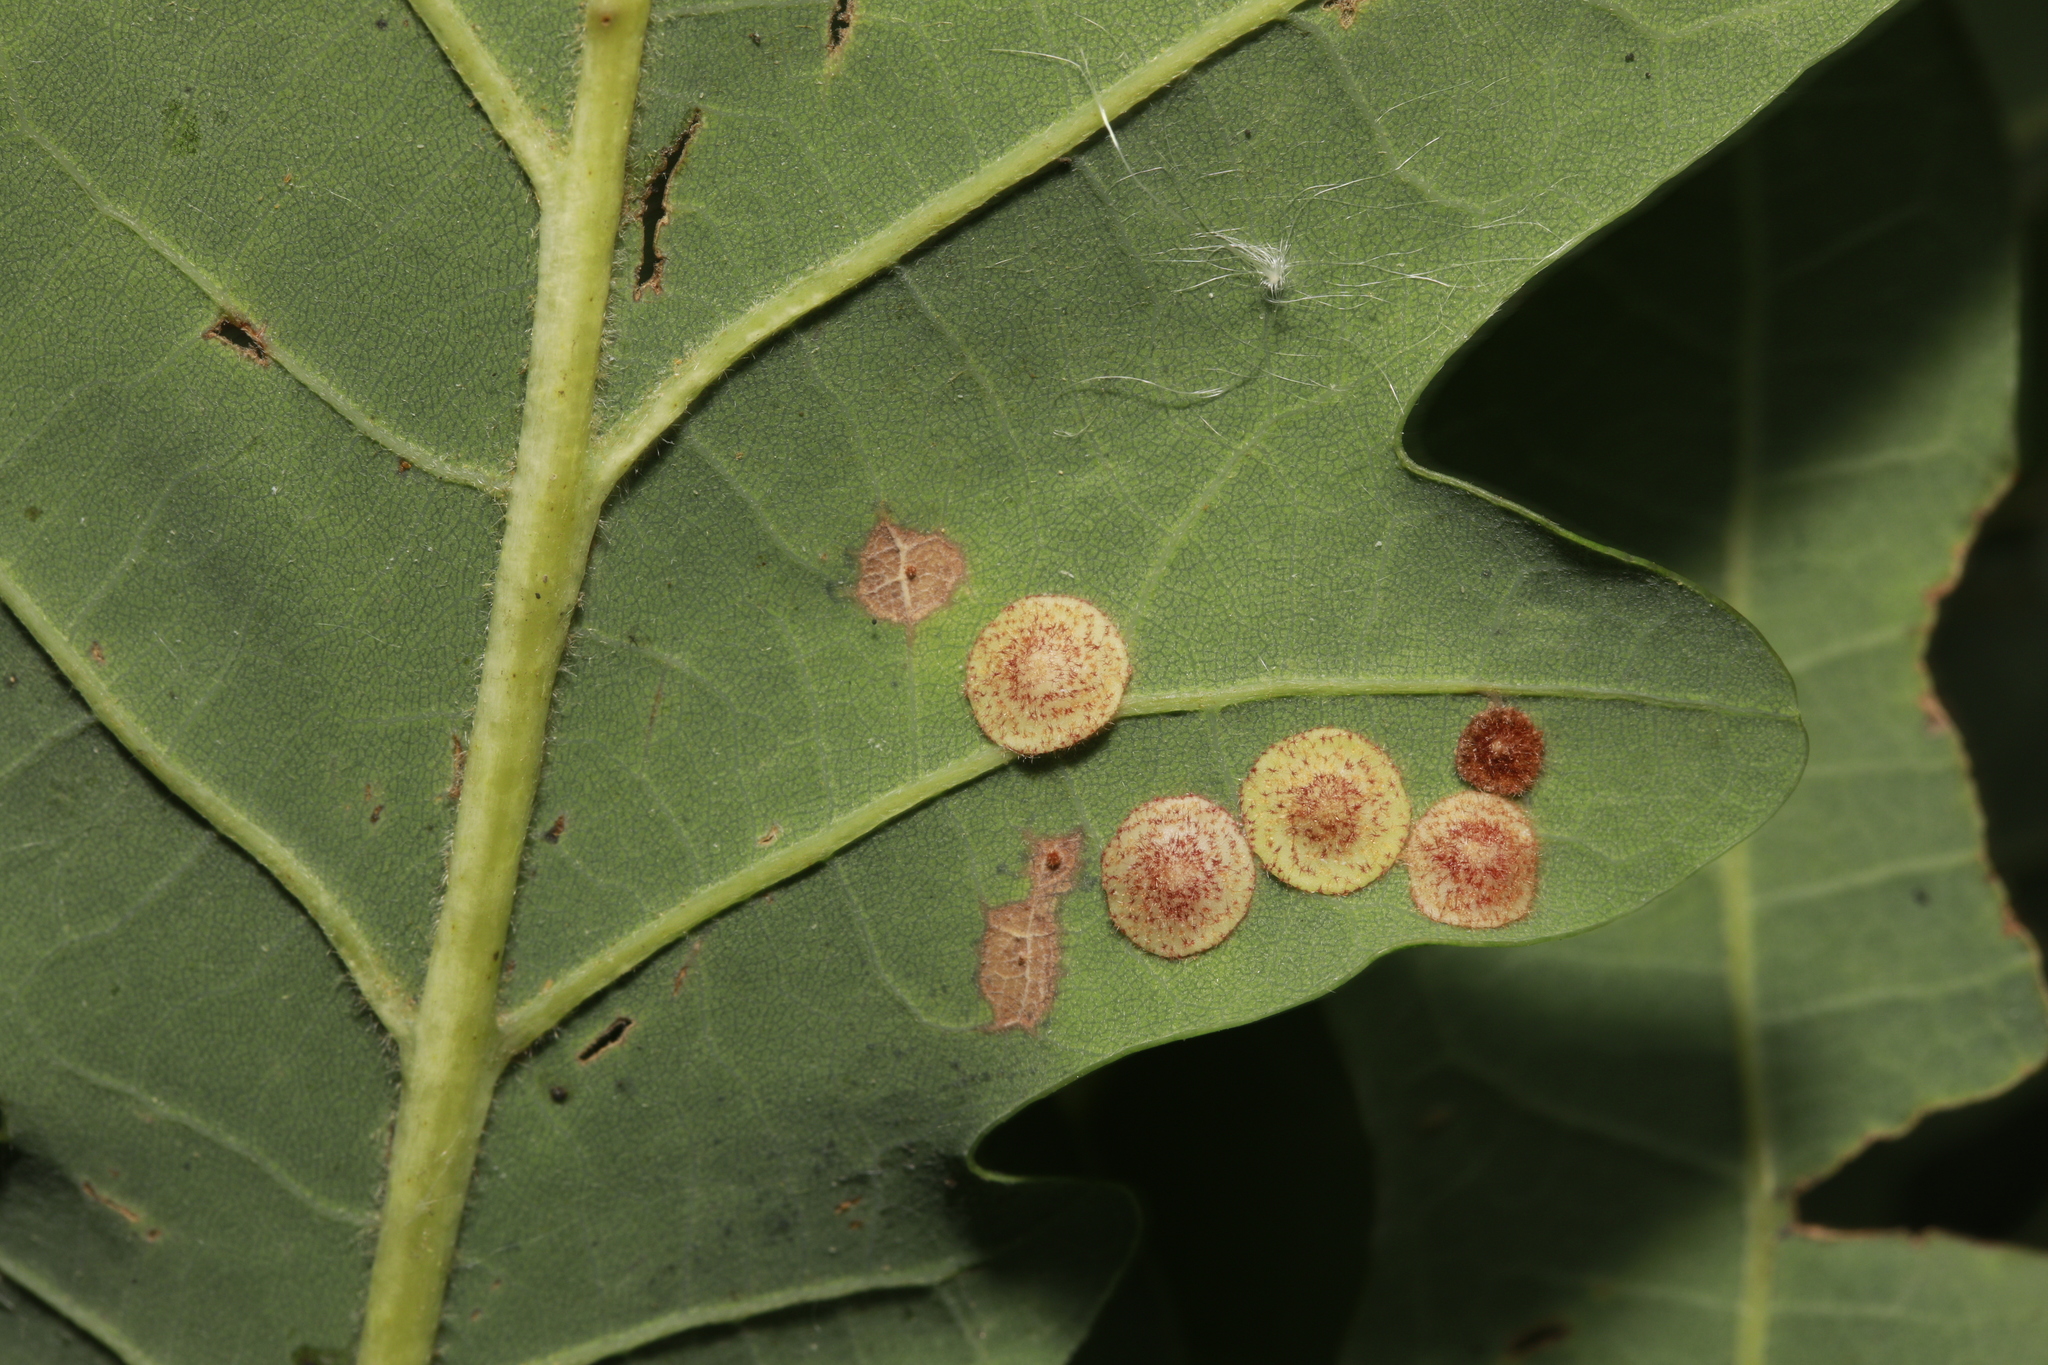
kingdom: Animalia
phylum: Arthropoda
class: Insecta
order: Hymenoptera
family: Cynipidae
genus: Neuroterus
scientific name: Neuroterus quercusbaccarum
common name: Common spangle gall
